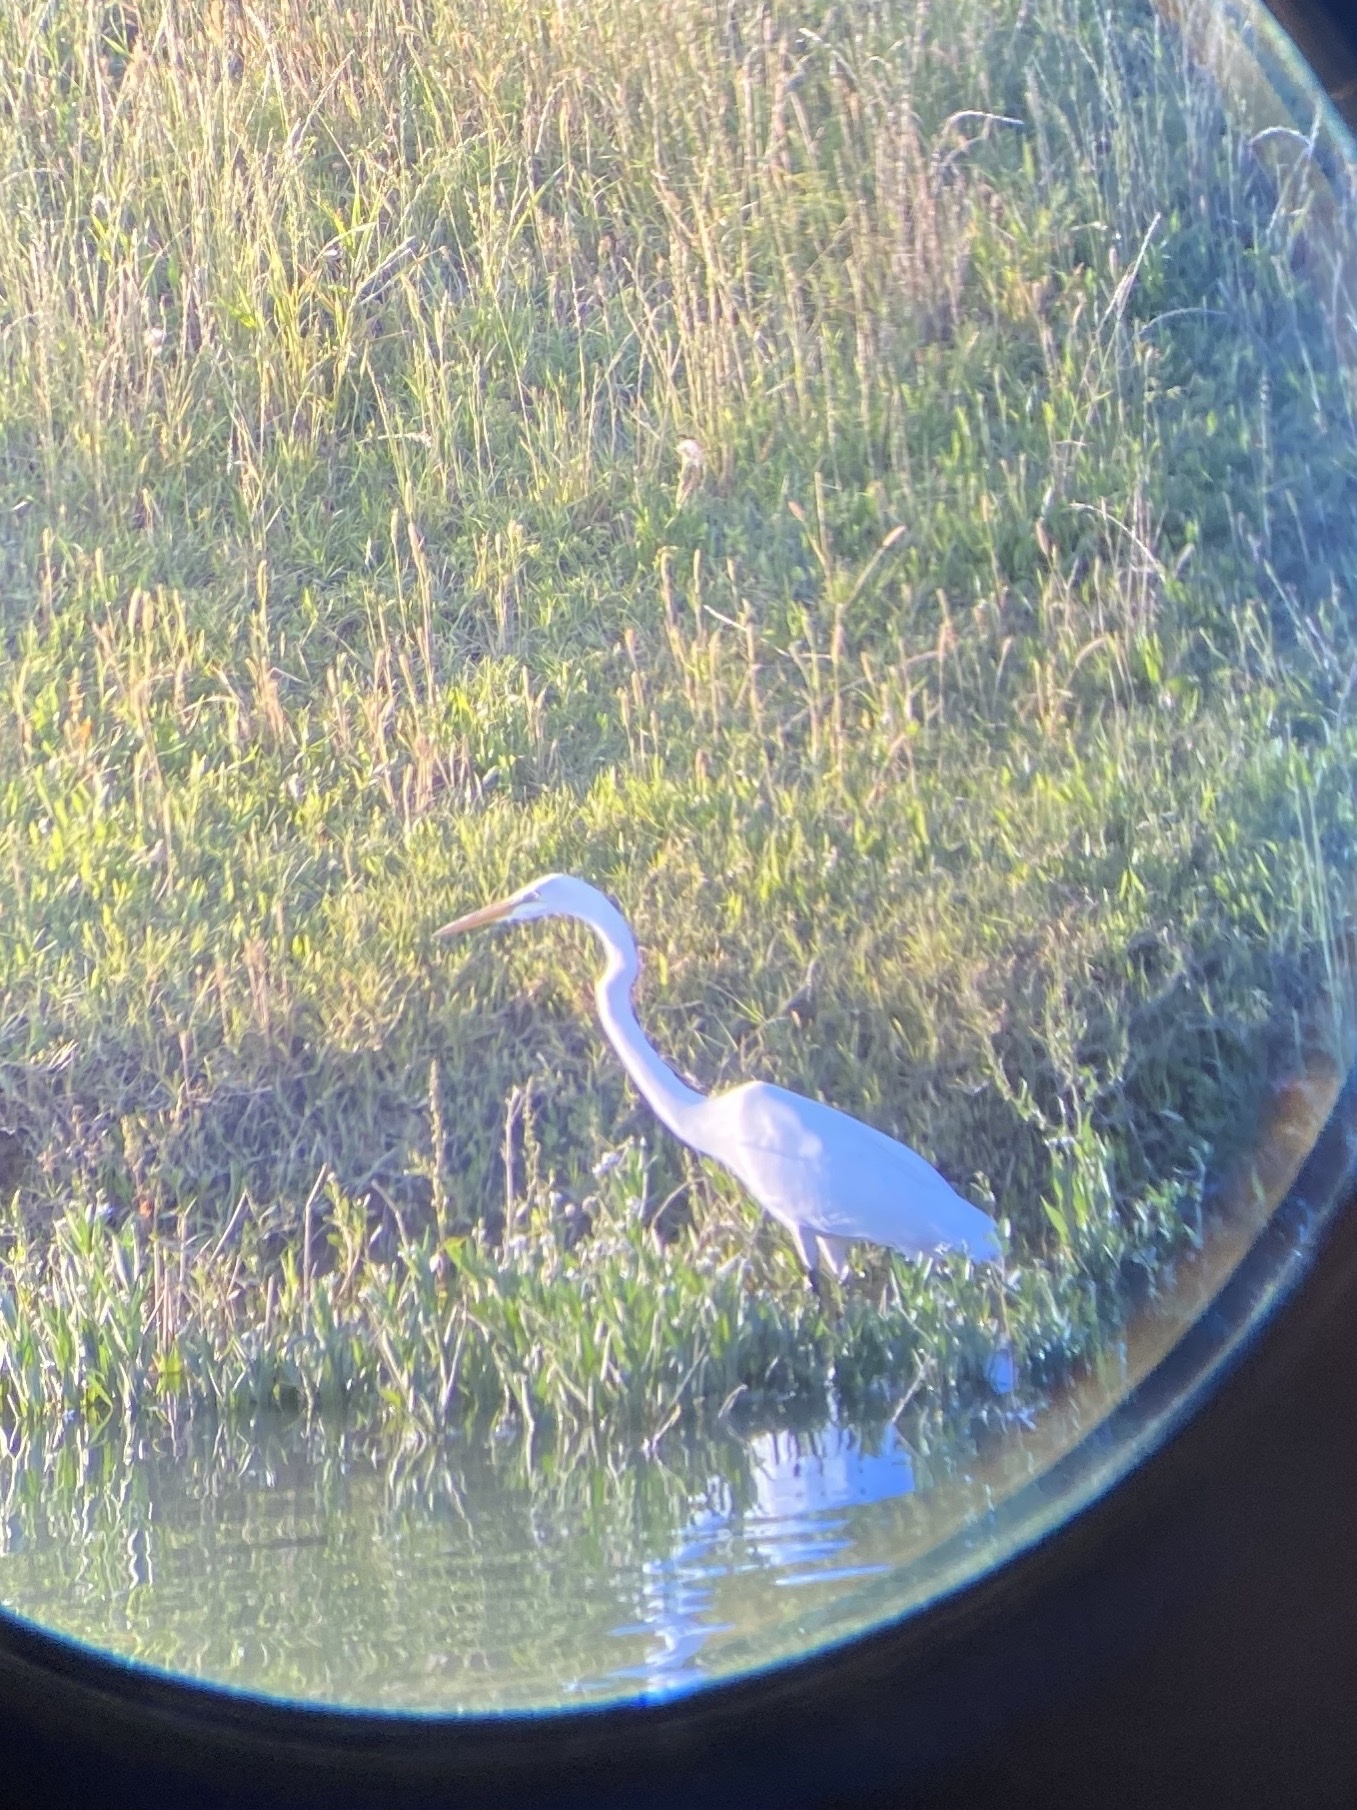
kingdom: Animalia
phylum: Chordata
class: Aves
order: Pelecaniformes
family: Ardeidae
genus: Ardea
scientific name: Ardea alba
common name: Great egret
